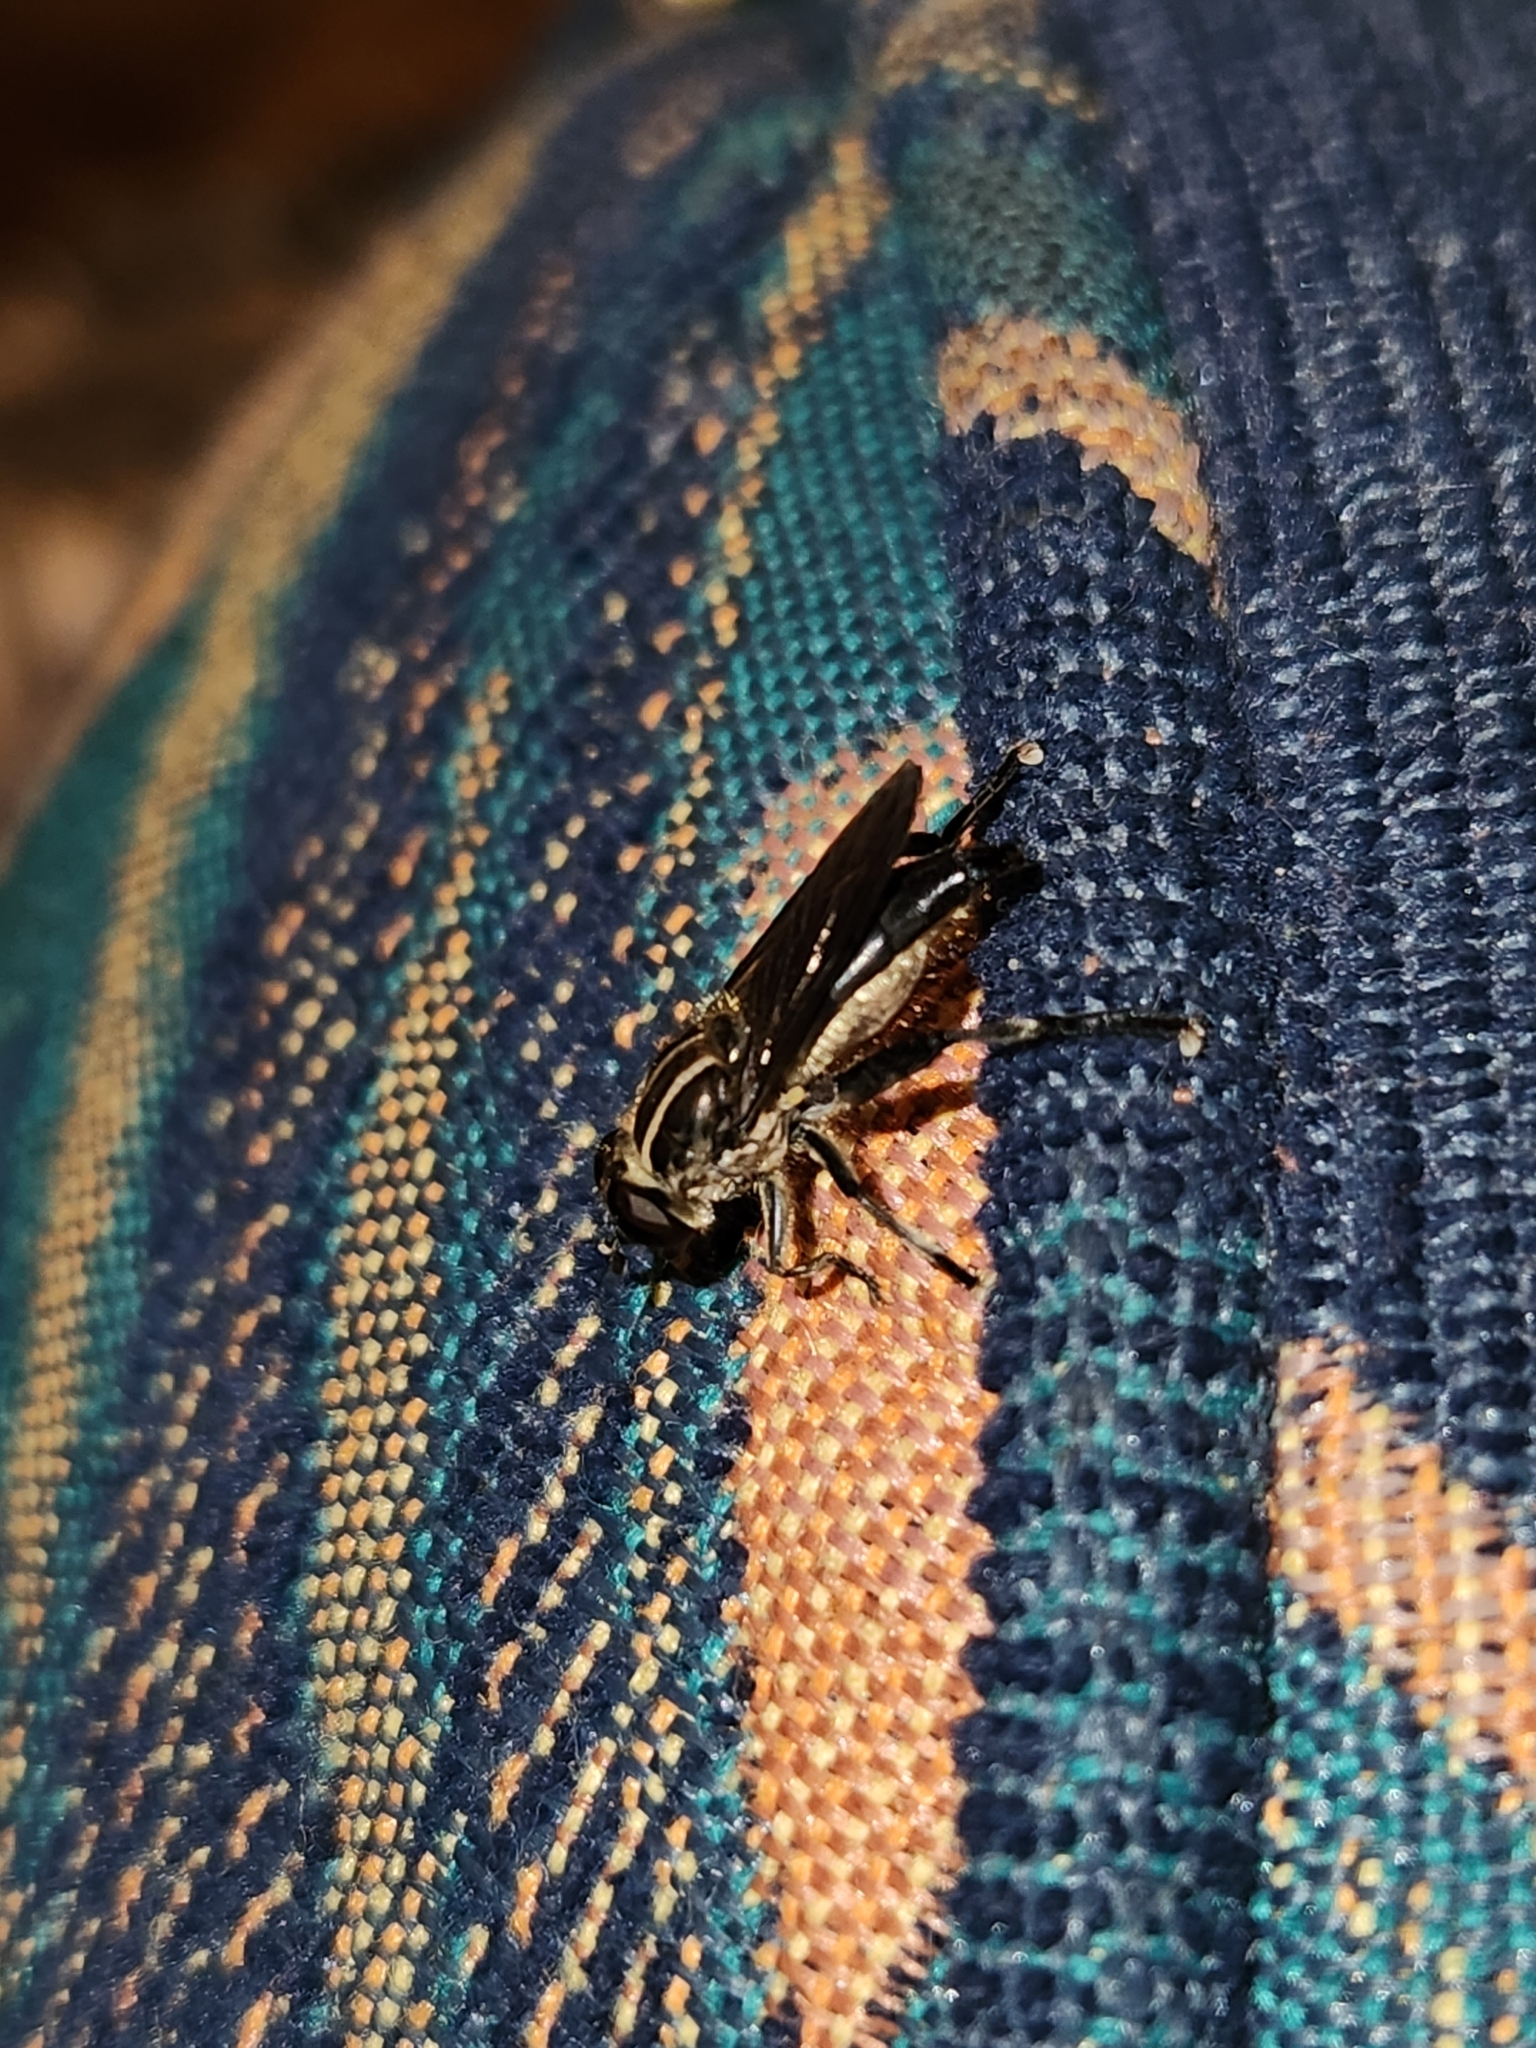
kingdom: Animalia
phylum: Arthropoda
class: Insecta
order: Diptera
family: Syrphidae
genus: Orthoprosopa
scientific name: Orthoprosopa bilineata
